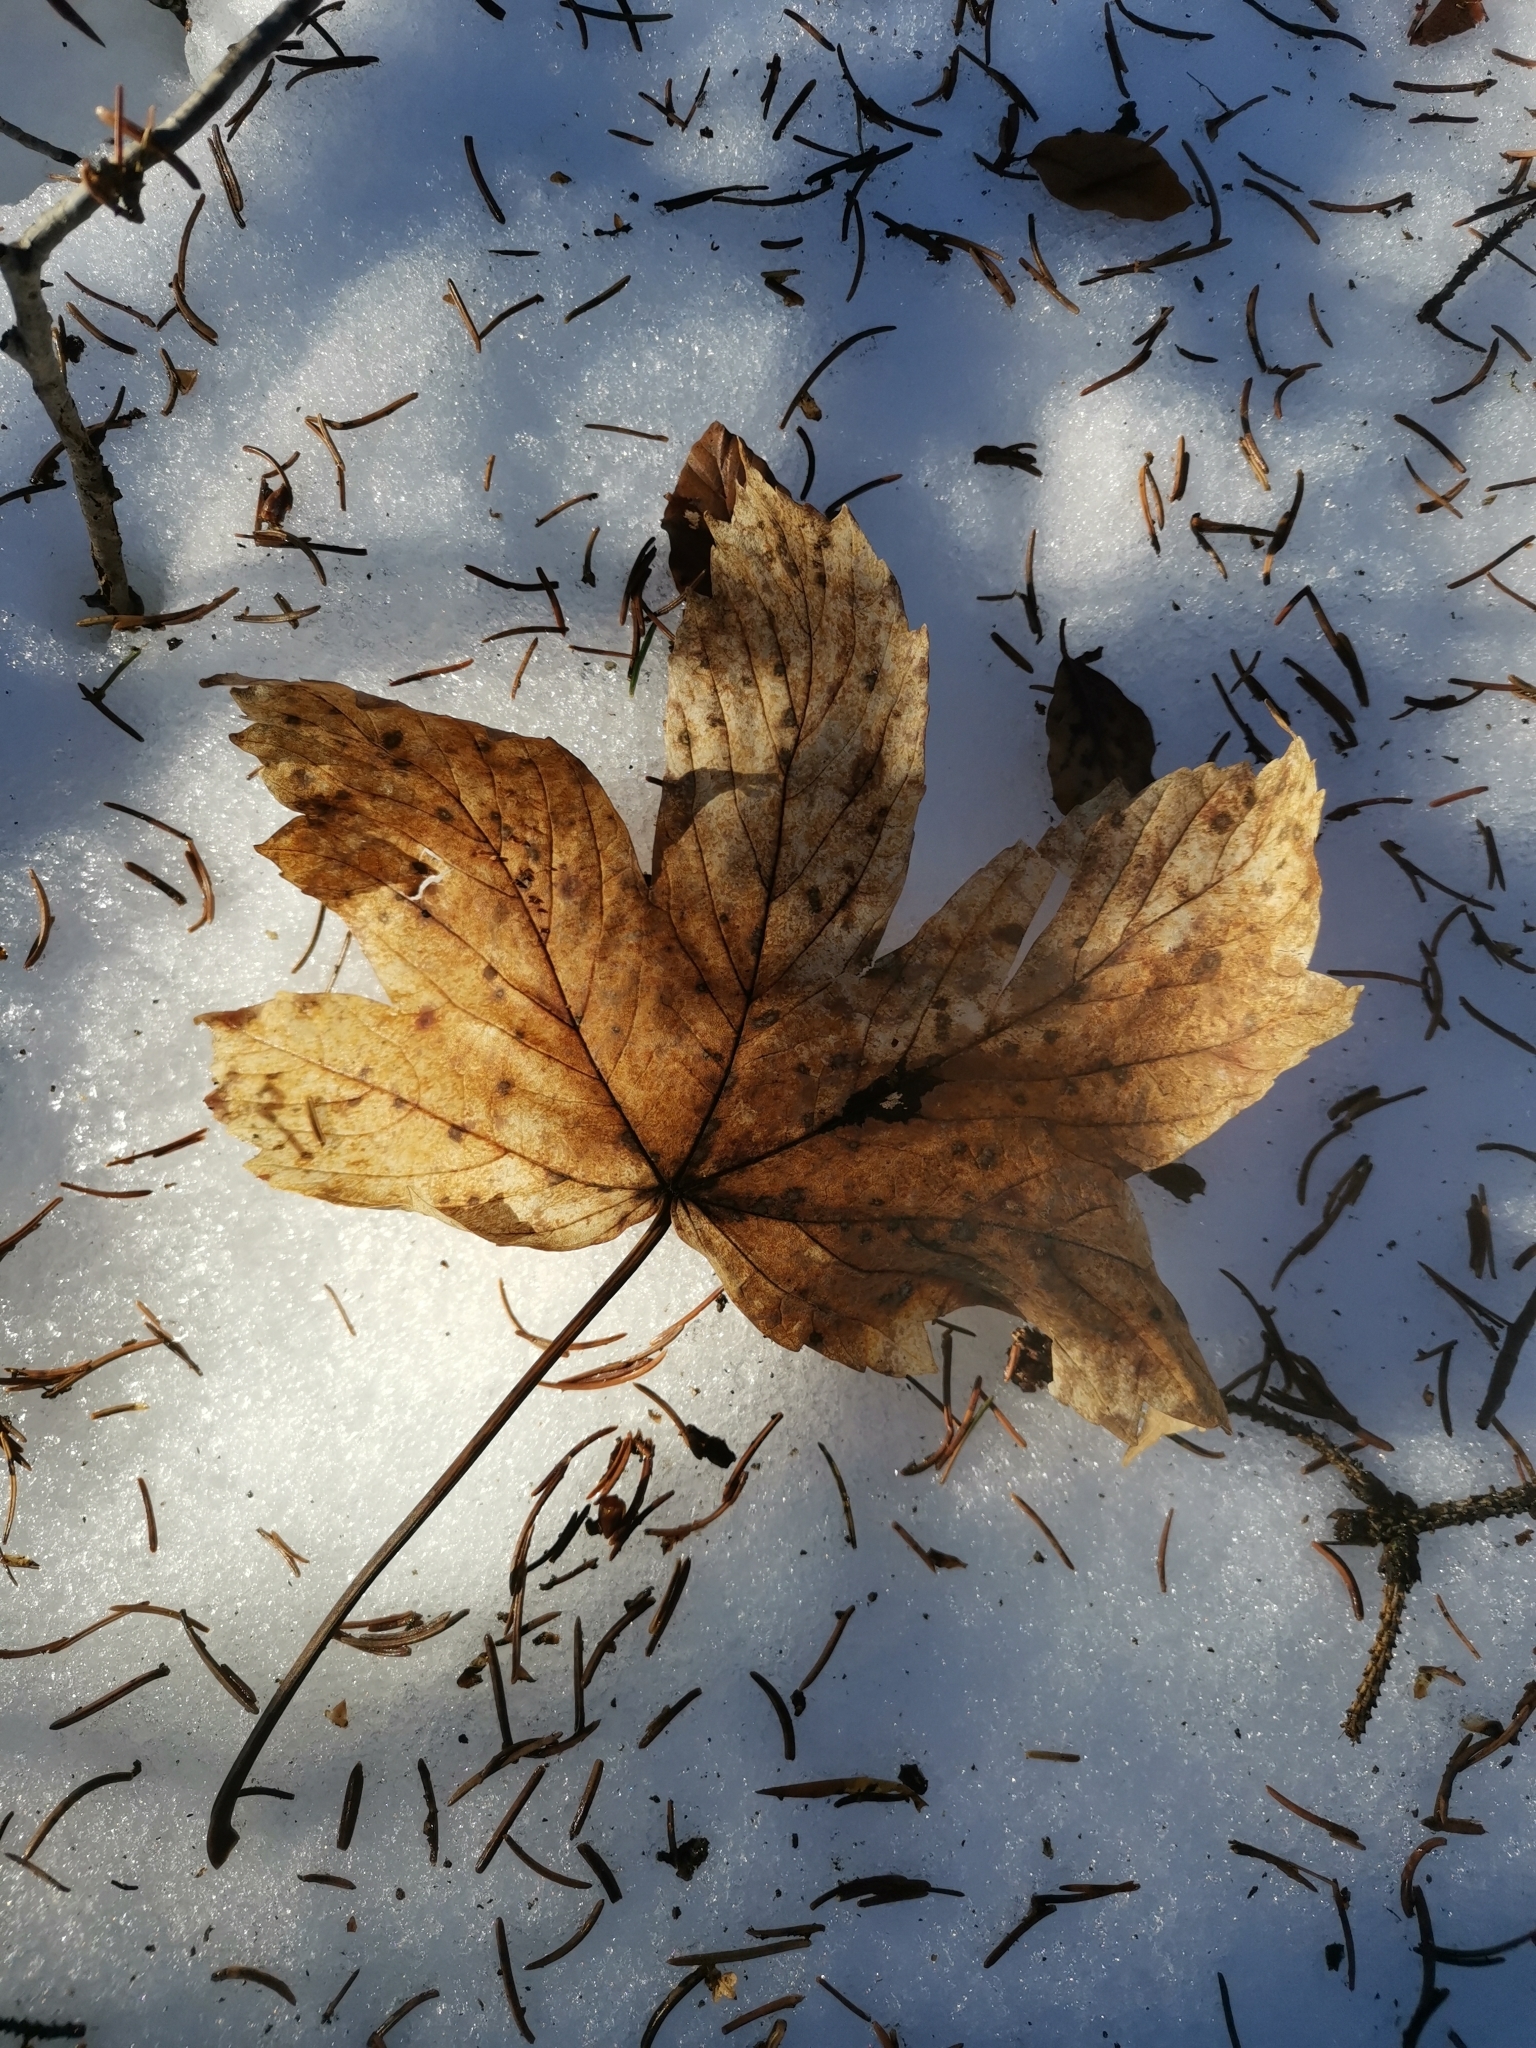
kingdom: Plantae
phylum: Tracheophyta
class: Magnoliopsida
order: Sapindales
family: Sapindaceae
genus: Acer
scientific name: Acer pseudoplatanus
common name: Sycamore
